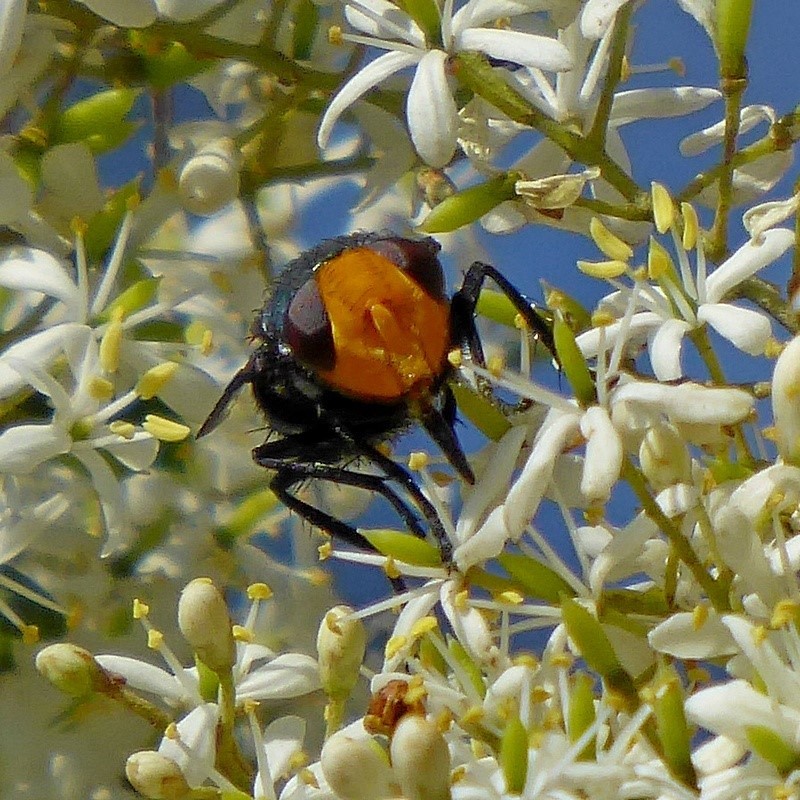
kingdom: Animalia
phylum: Arthropoda
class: Insecta
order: Diptera
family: Calliphoridae
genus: Amenia
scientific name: Amenia imperialis
